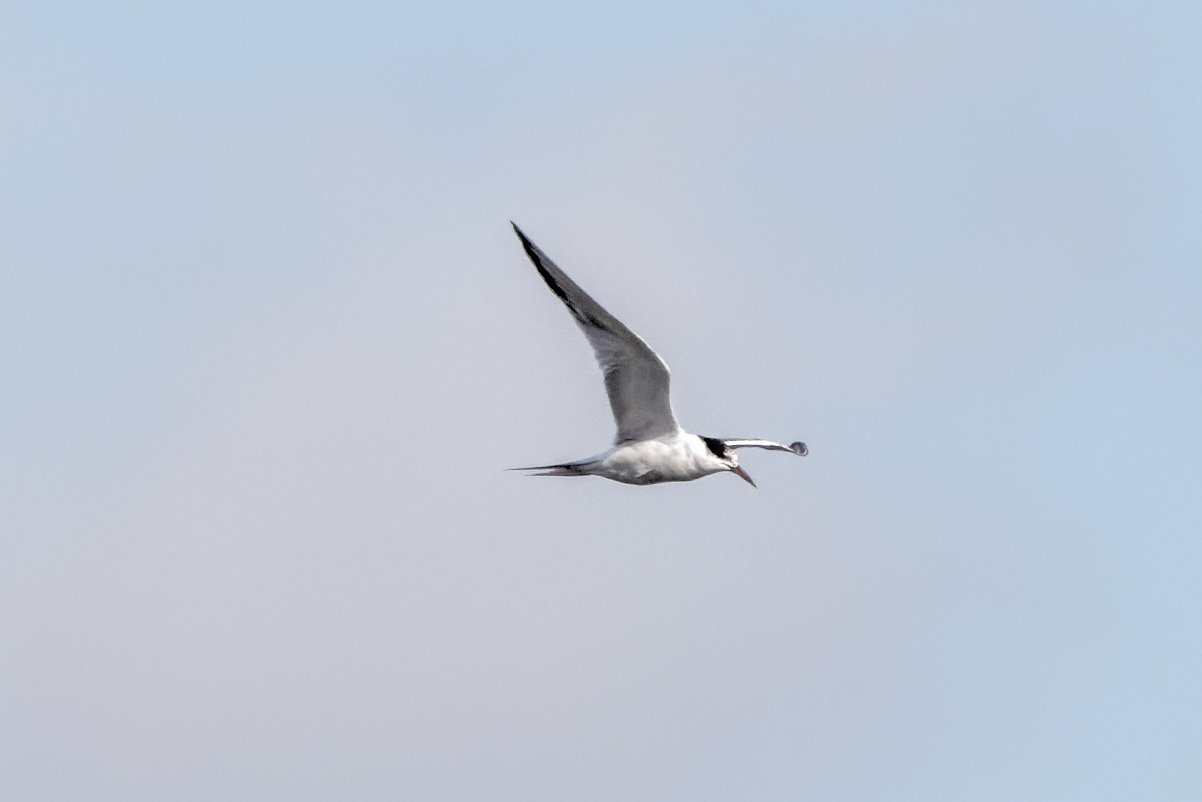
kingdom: Animalia
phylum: Chordata
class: Aves
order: Charadriiformes
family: Laridae
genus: Sterna
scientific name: Sterna hirundo
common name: Common tern
